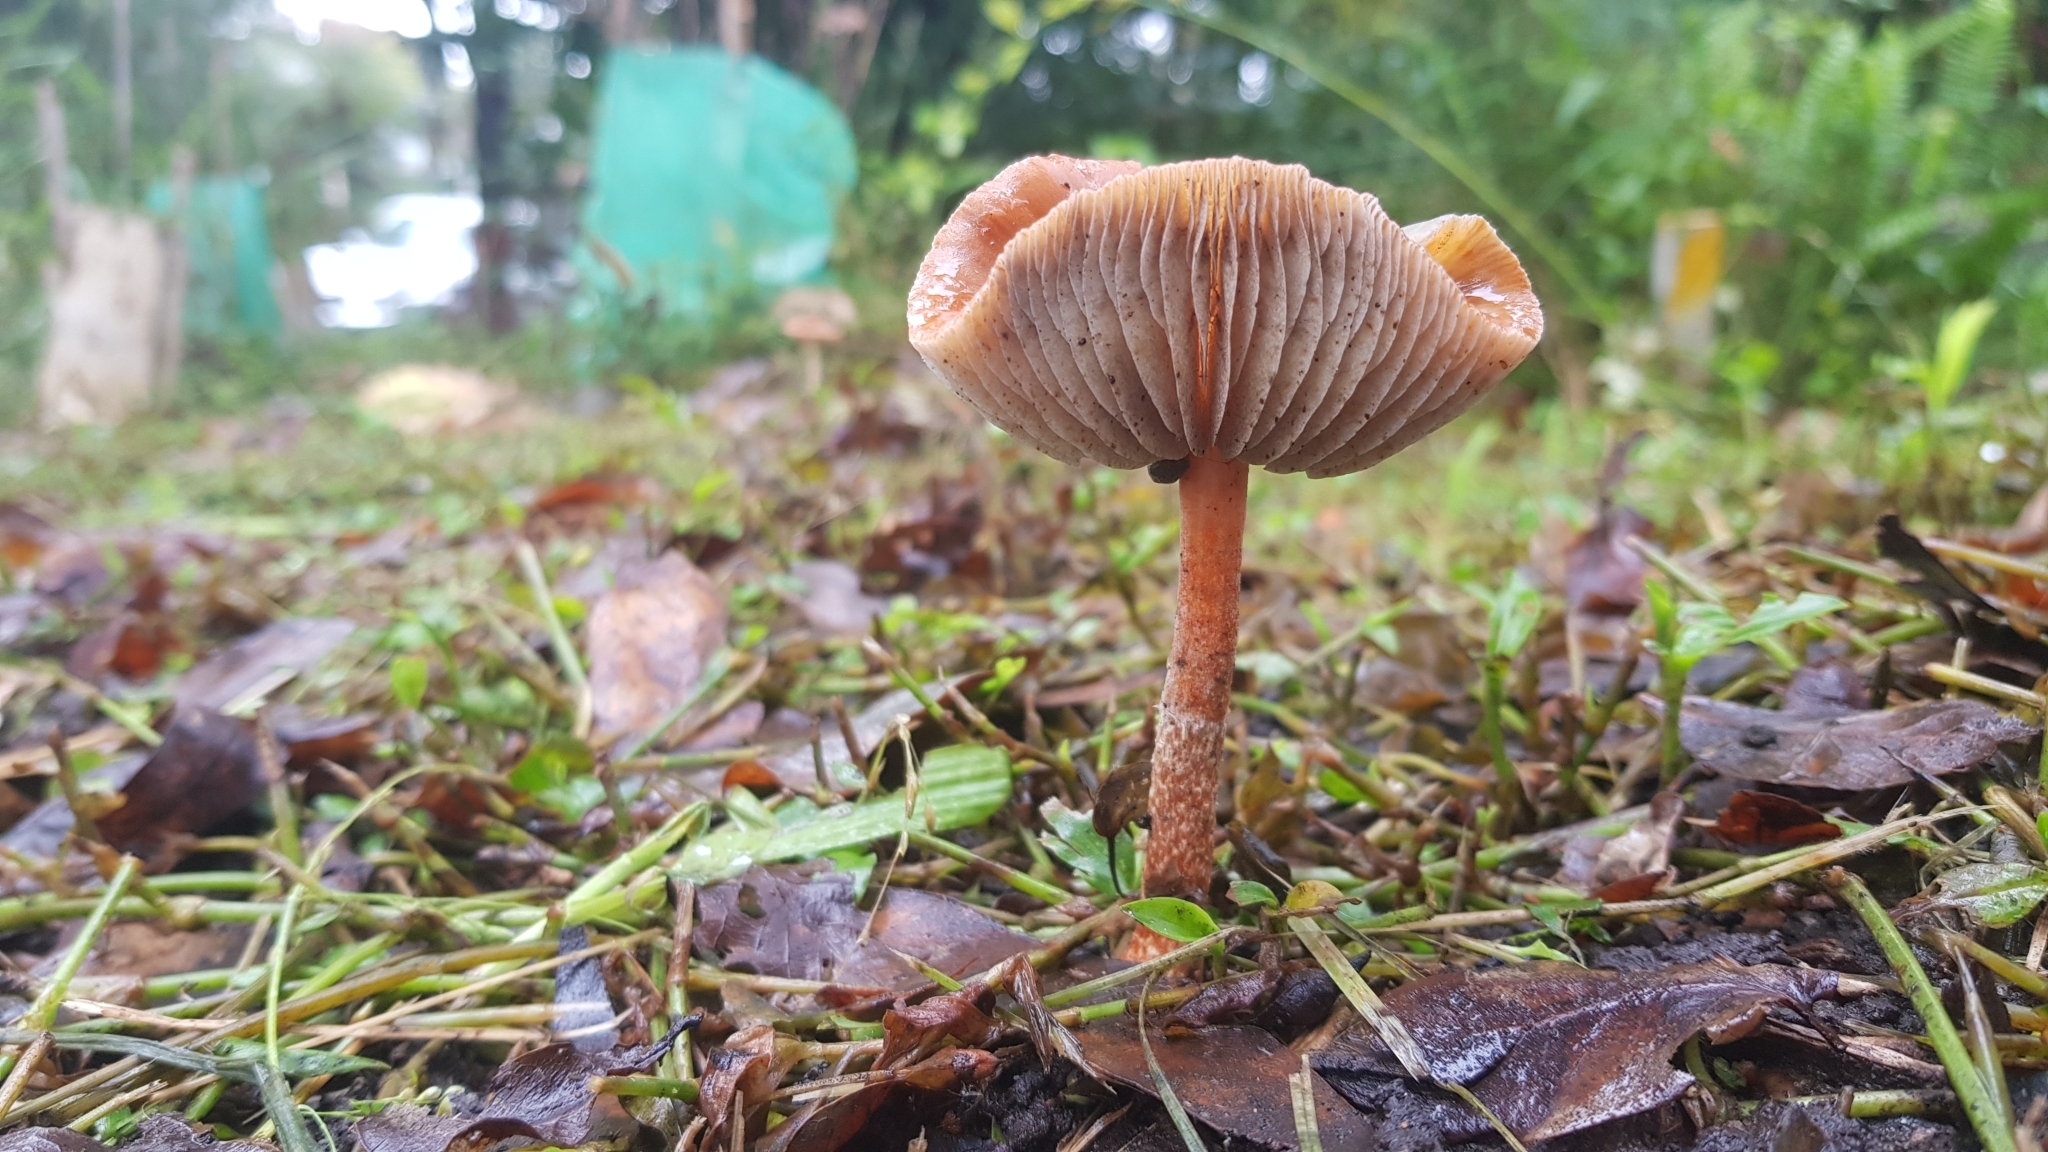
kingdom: Fungi
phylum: Basidiomycota
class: Agaricomycetes
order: Agaricales
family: Strophariaceae
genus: Leratiomyces
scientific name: Leratiomyces ceres
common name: Redlead roundhead
